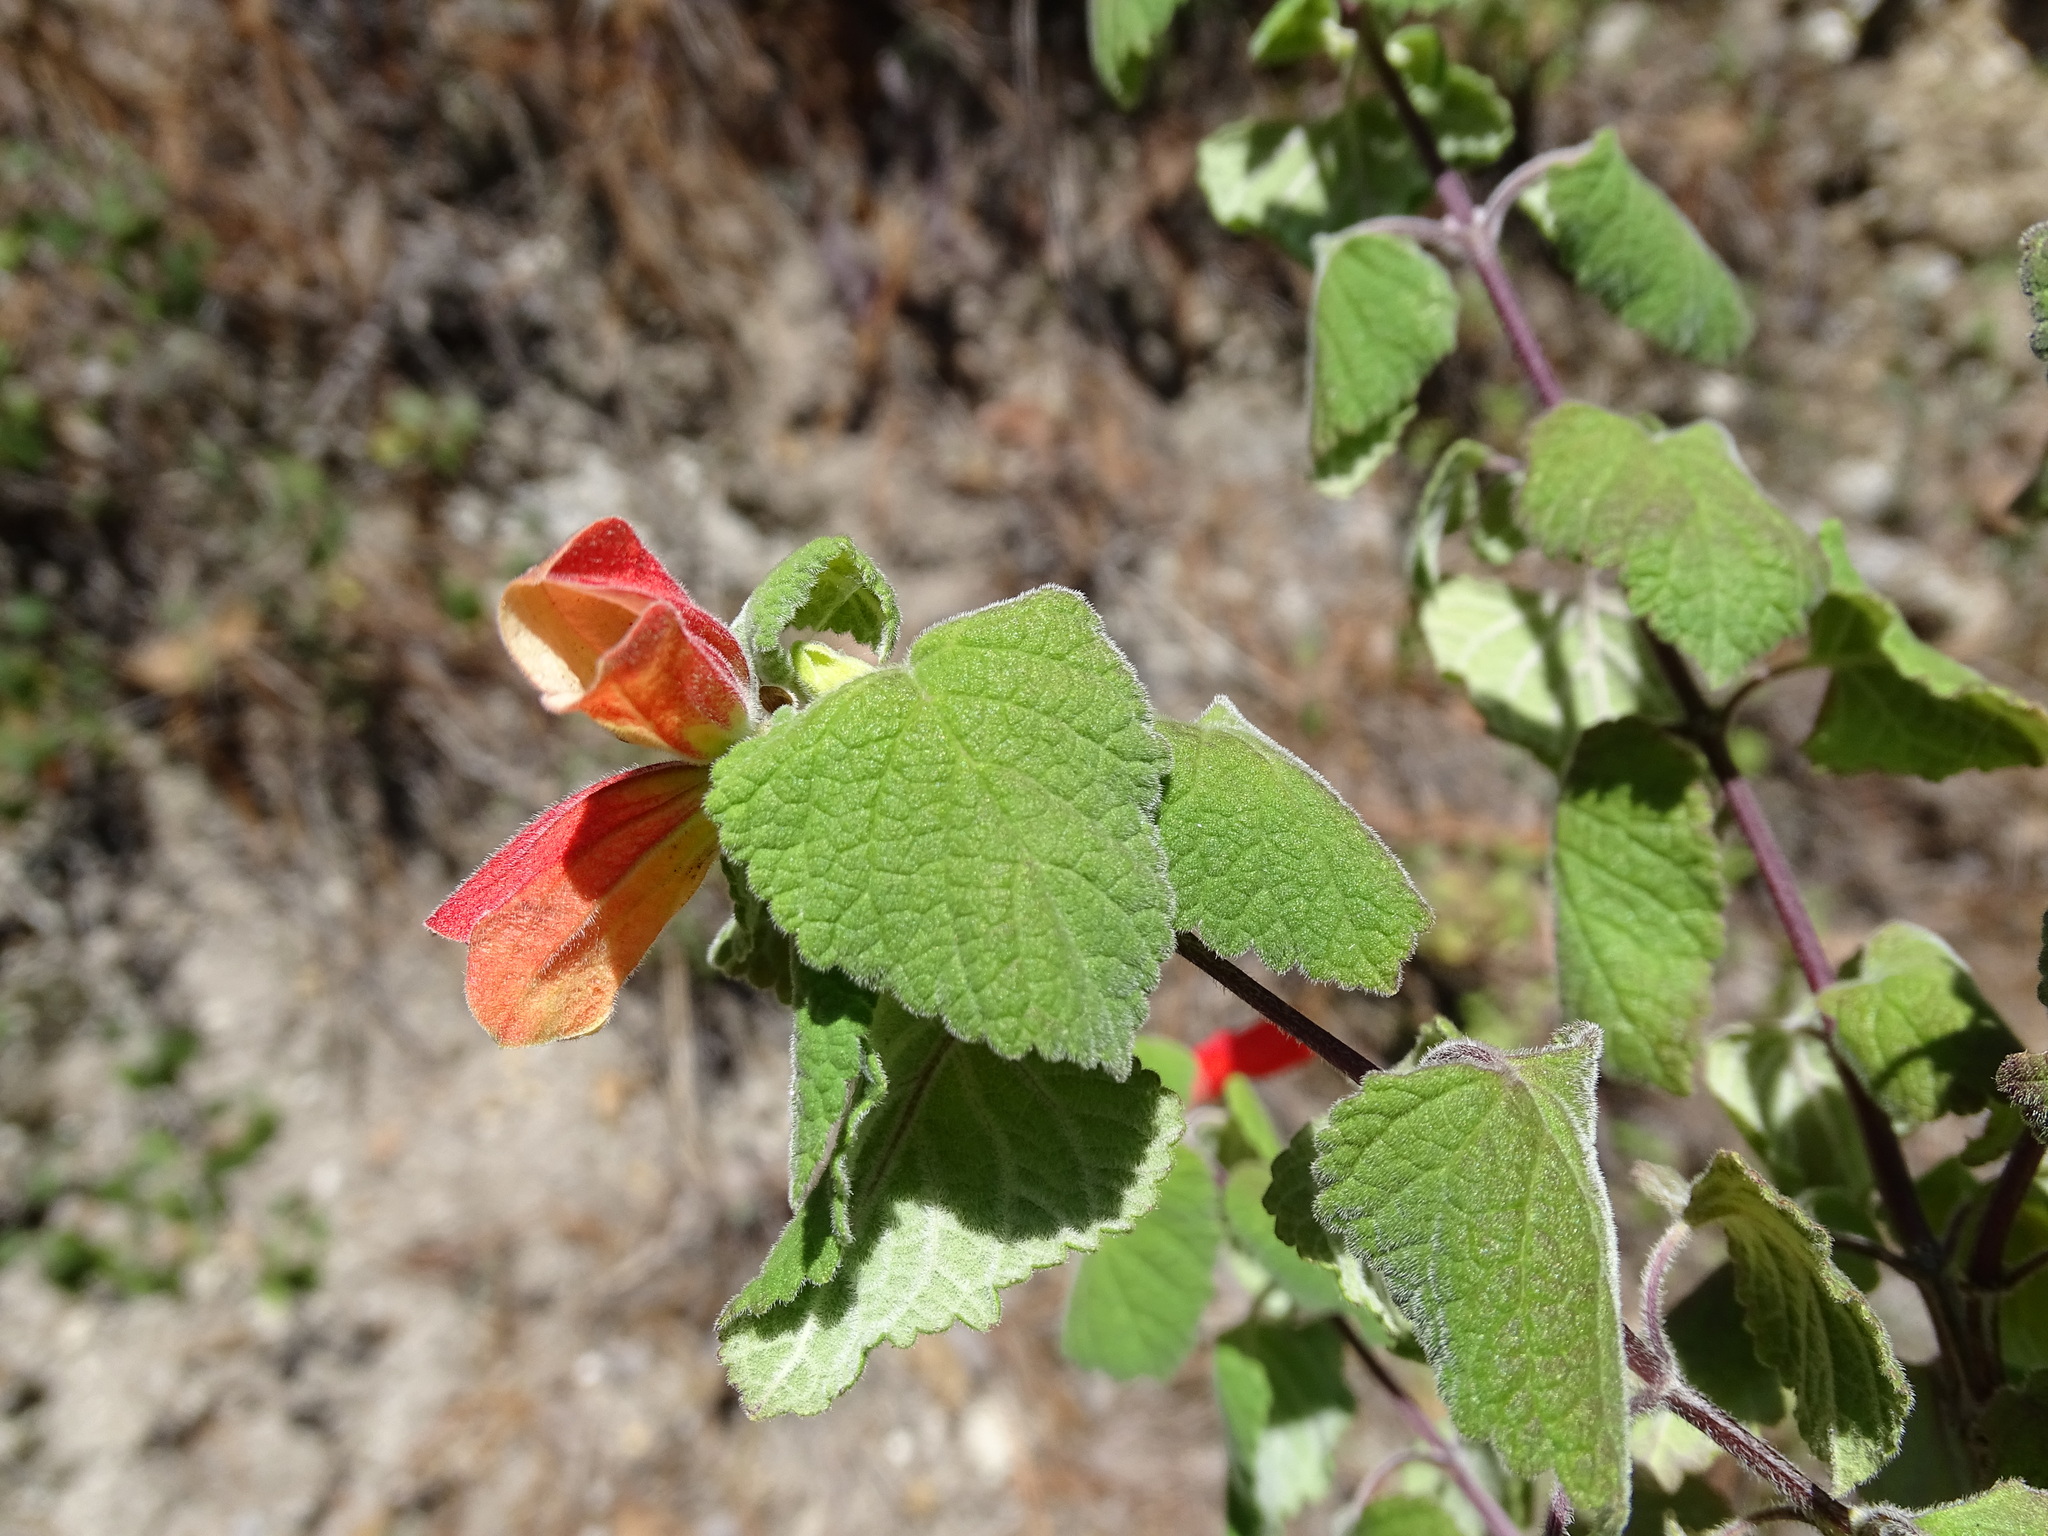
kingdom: Plantae
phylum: Tracheophyta
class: Magnoliopsida
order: Lamiales
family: Lamiaceae
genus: Salvia
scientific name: Salvia regla
